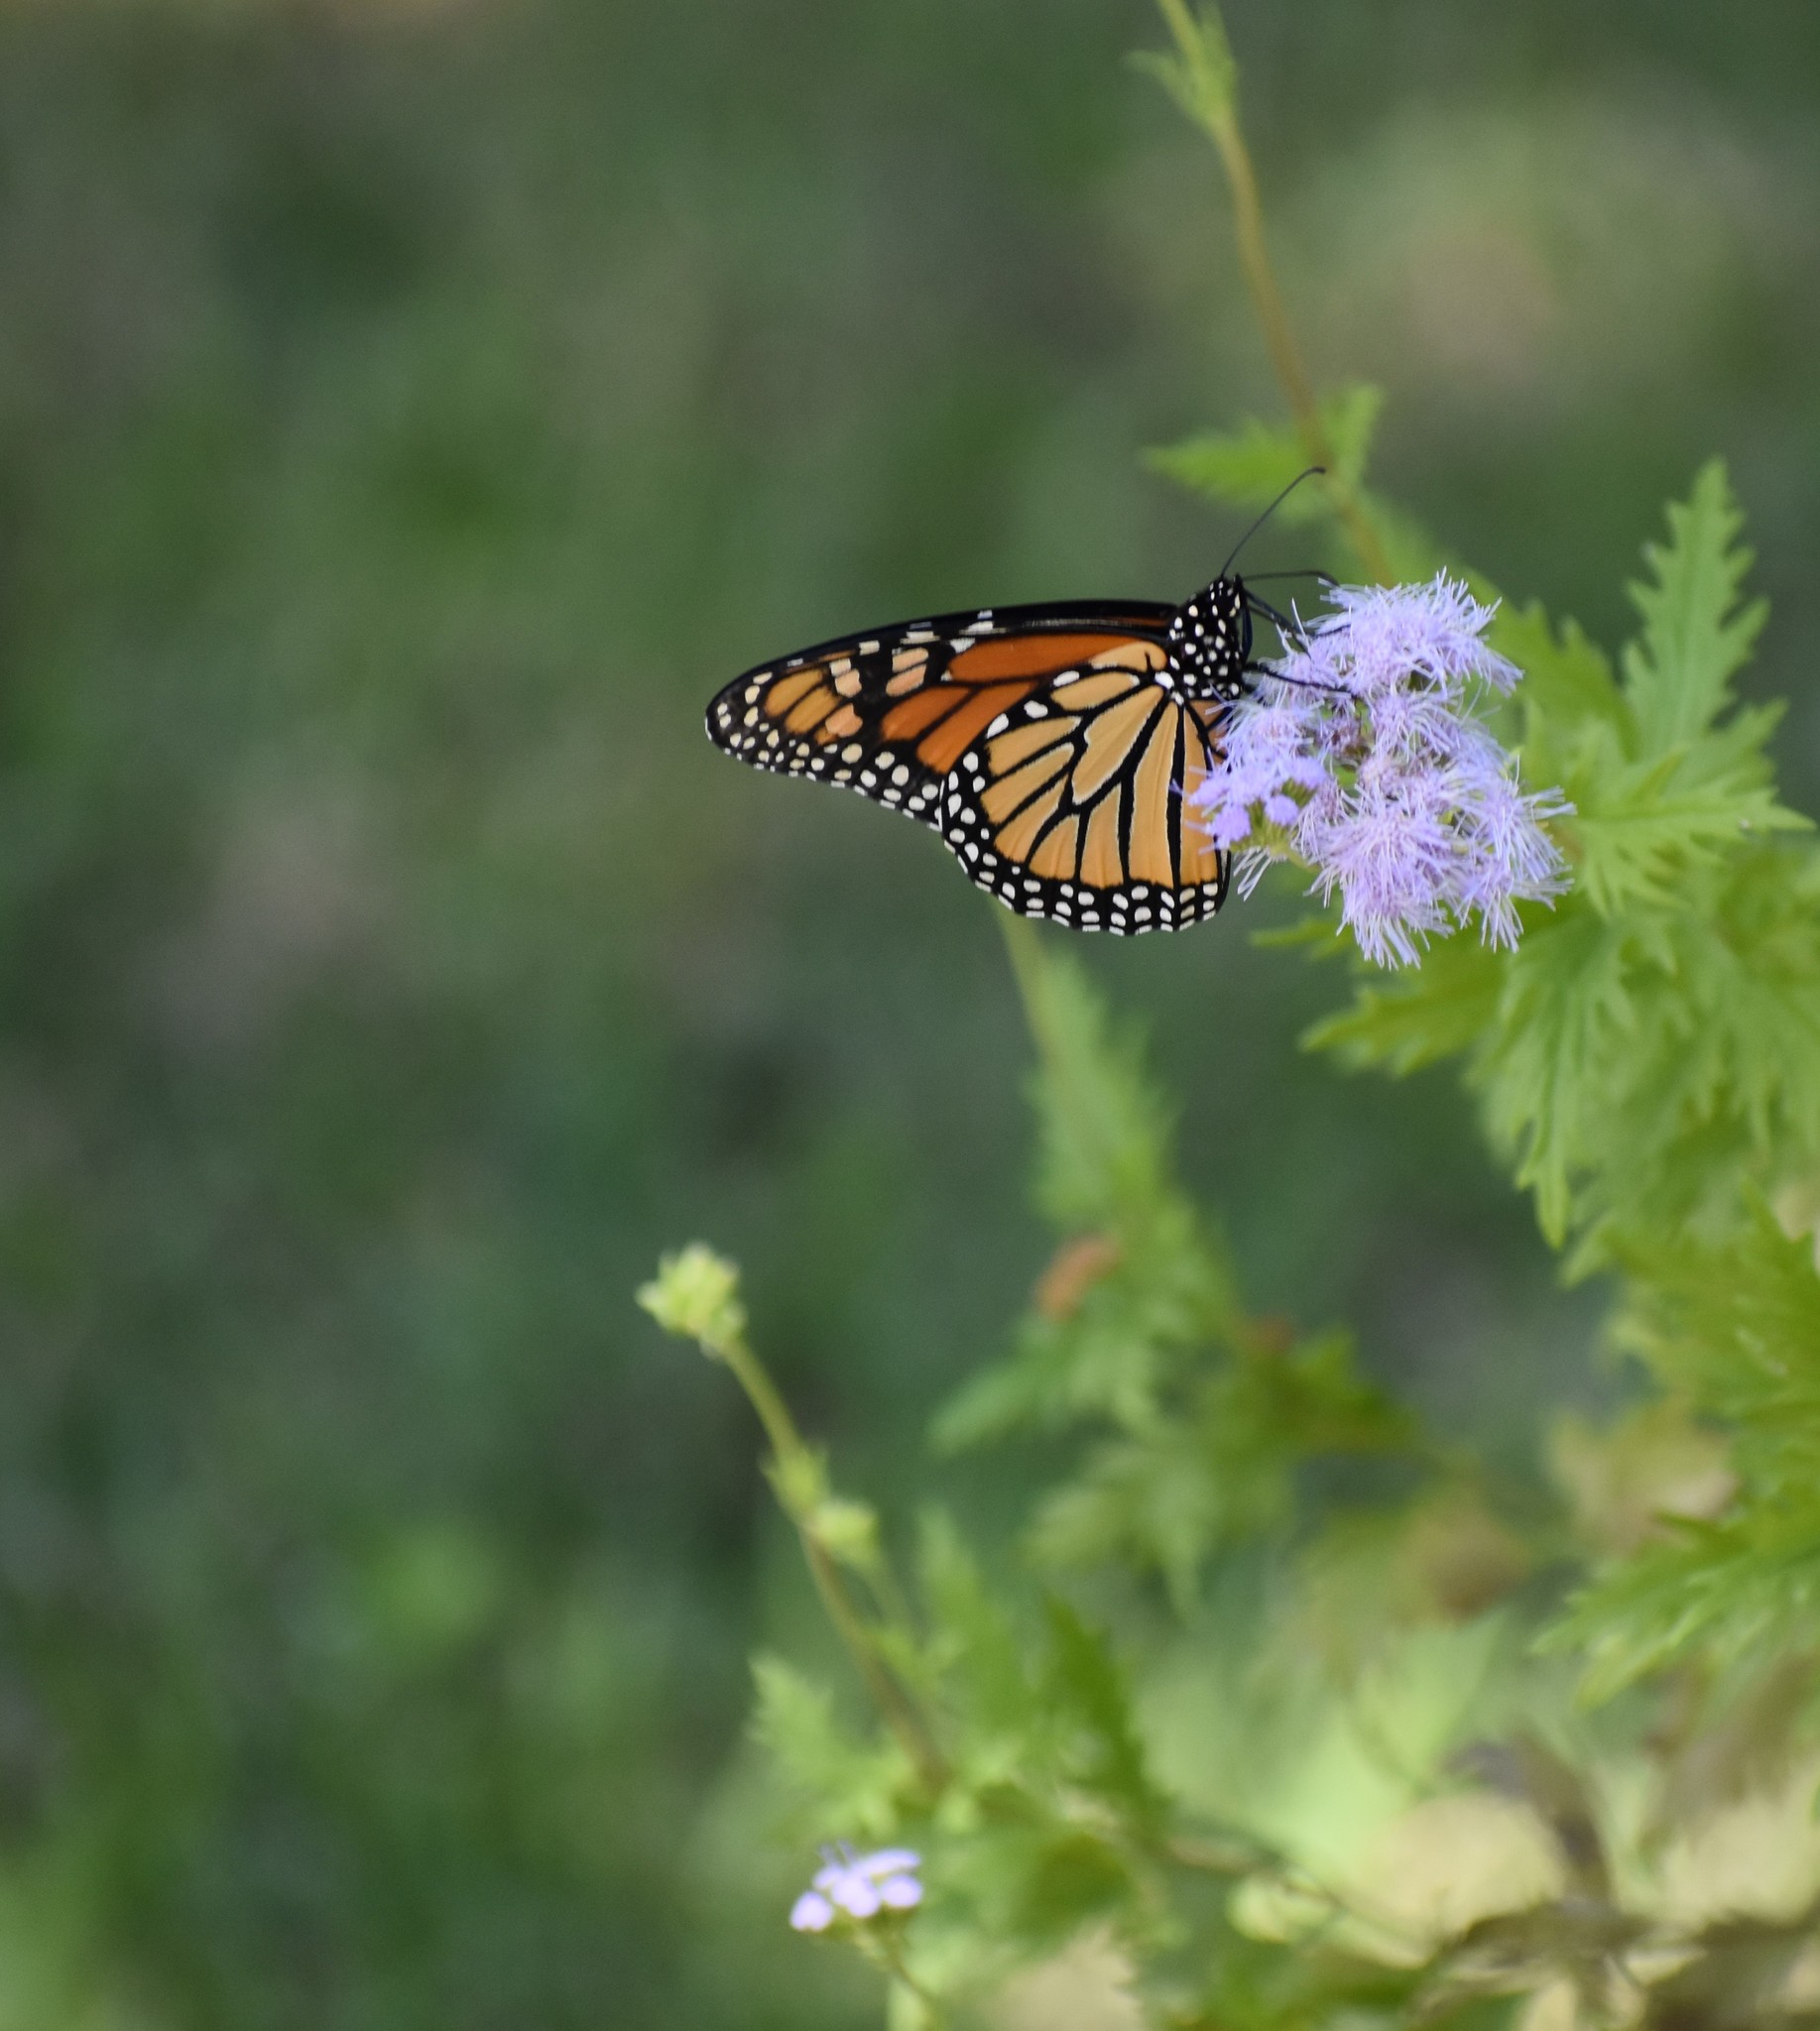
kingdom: Animalia
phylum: Arthropoda
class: Insecta
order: Lepidoptera
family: Nymphalidae
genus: Danaus
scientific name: Danaus plexippus
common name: Monarch
